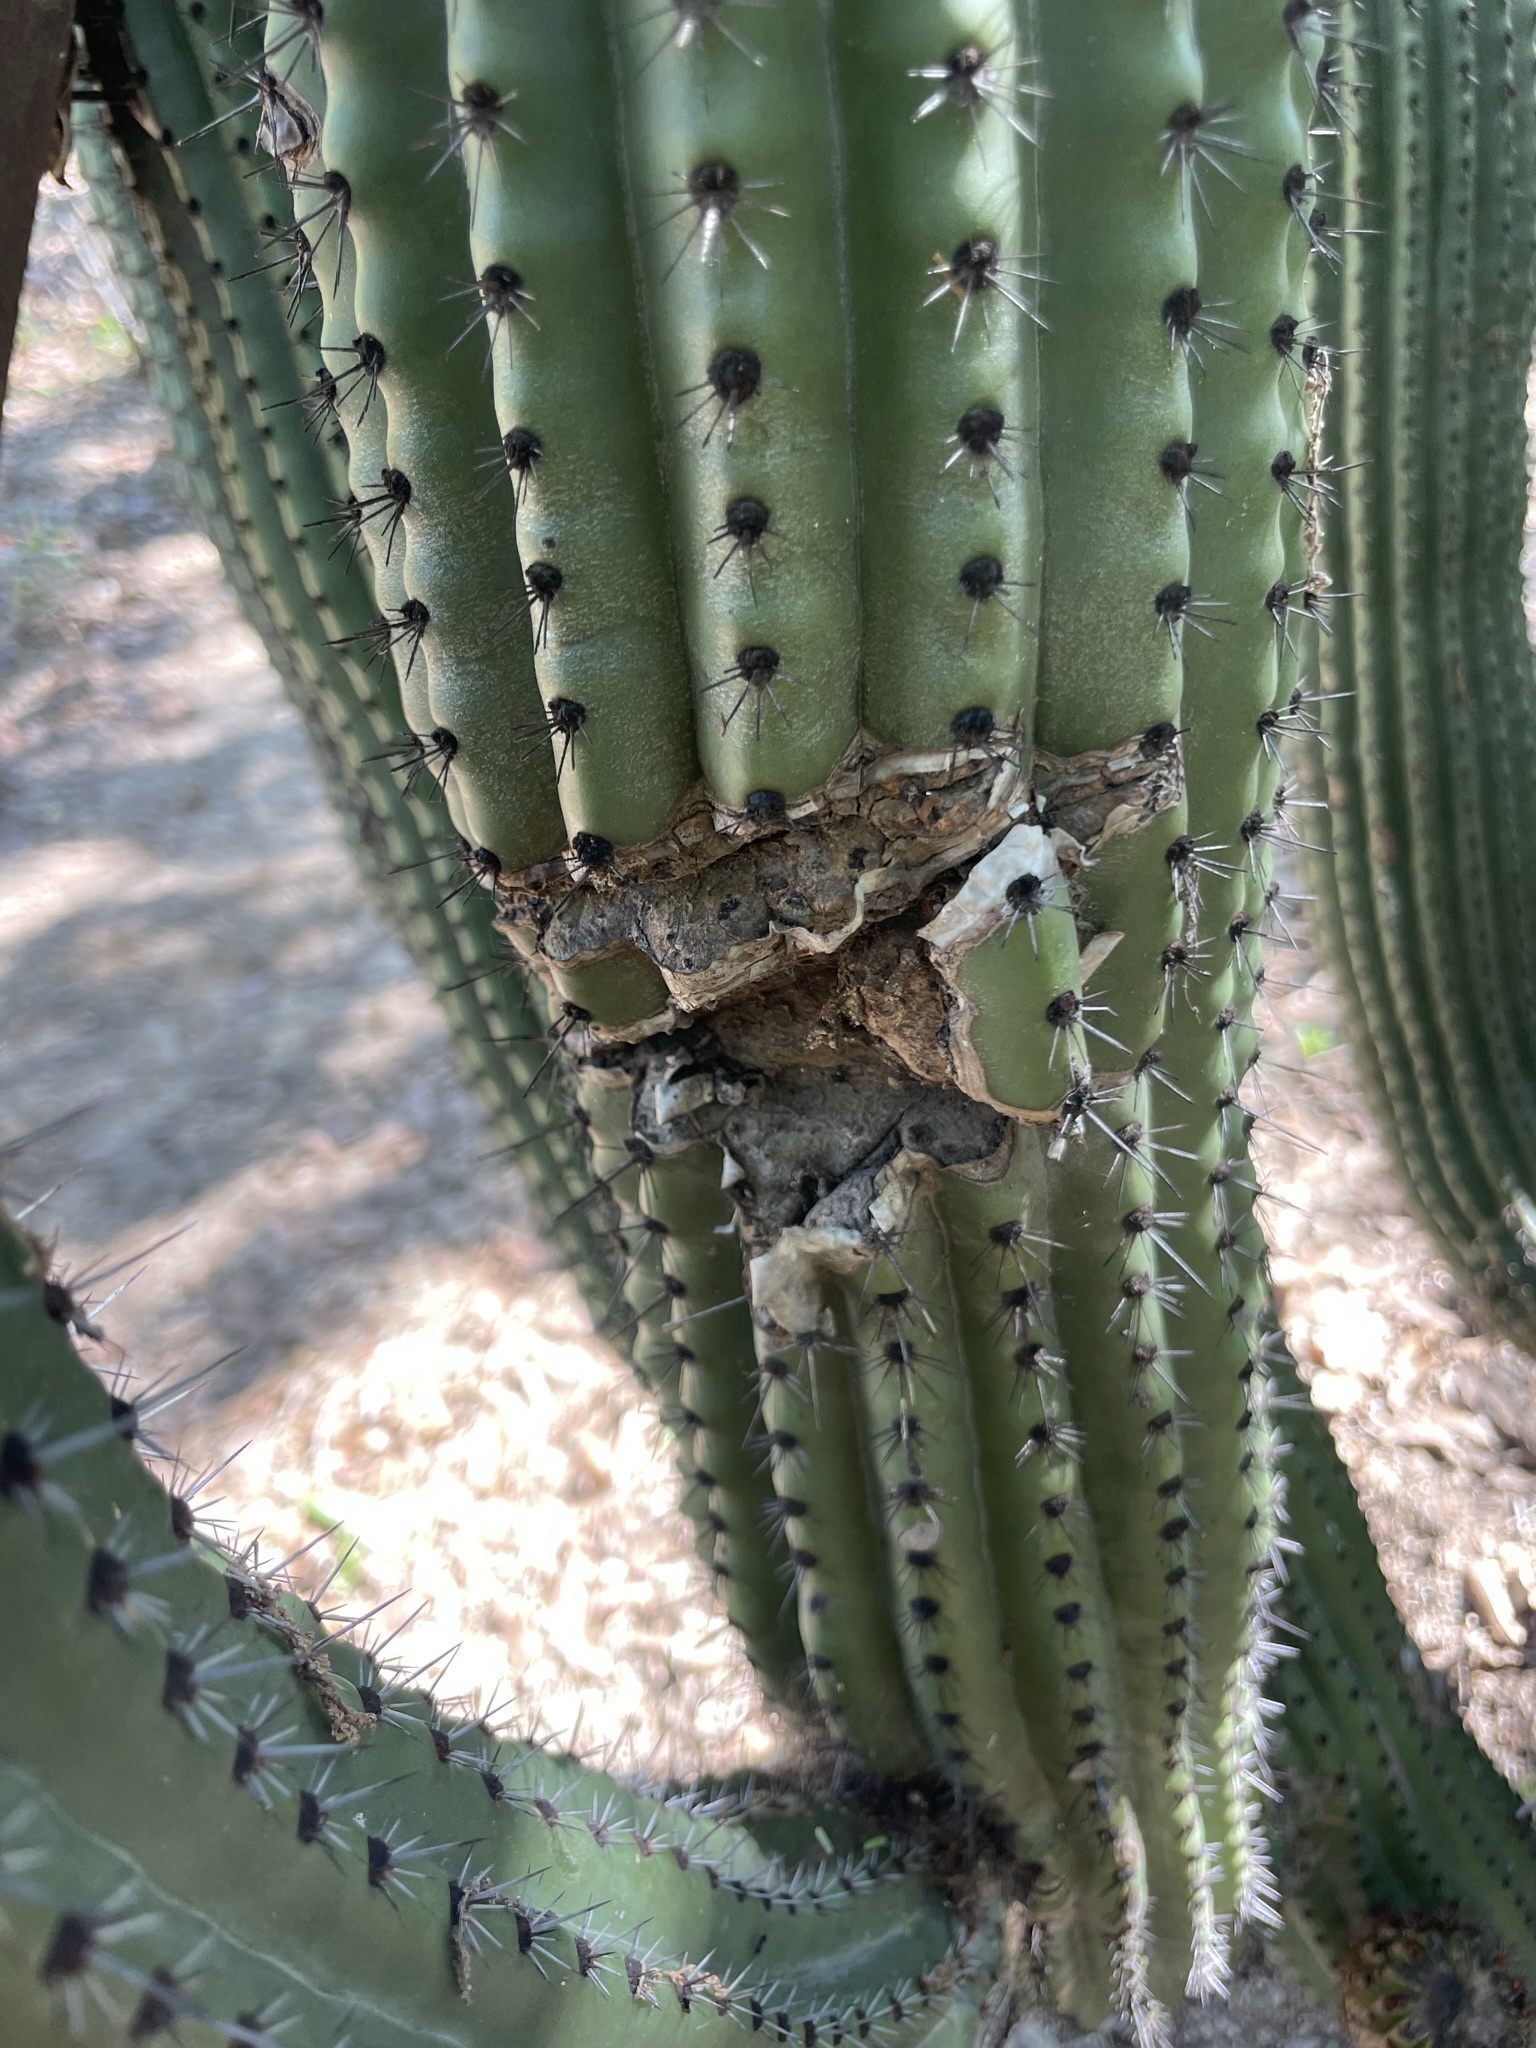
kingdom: Plantae
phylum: Tracheophyta
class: Magnoliopsida
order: Caryophyllales
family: Cactaceae
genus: Stenocereus
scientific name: Stenocereus thurberi
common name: Organ pipe cactus
